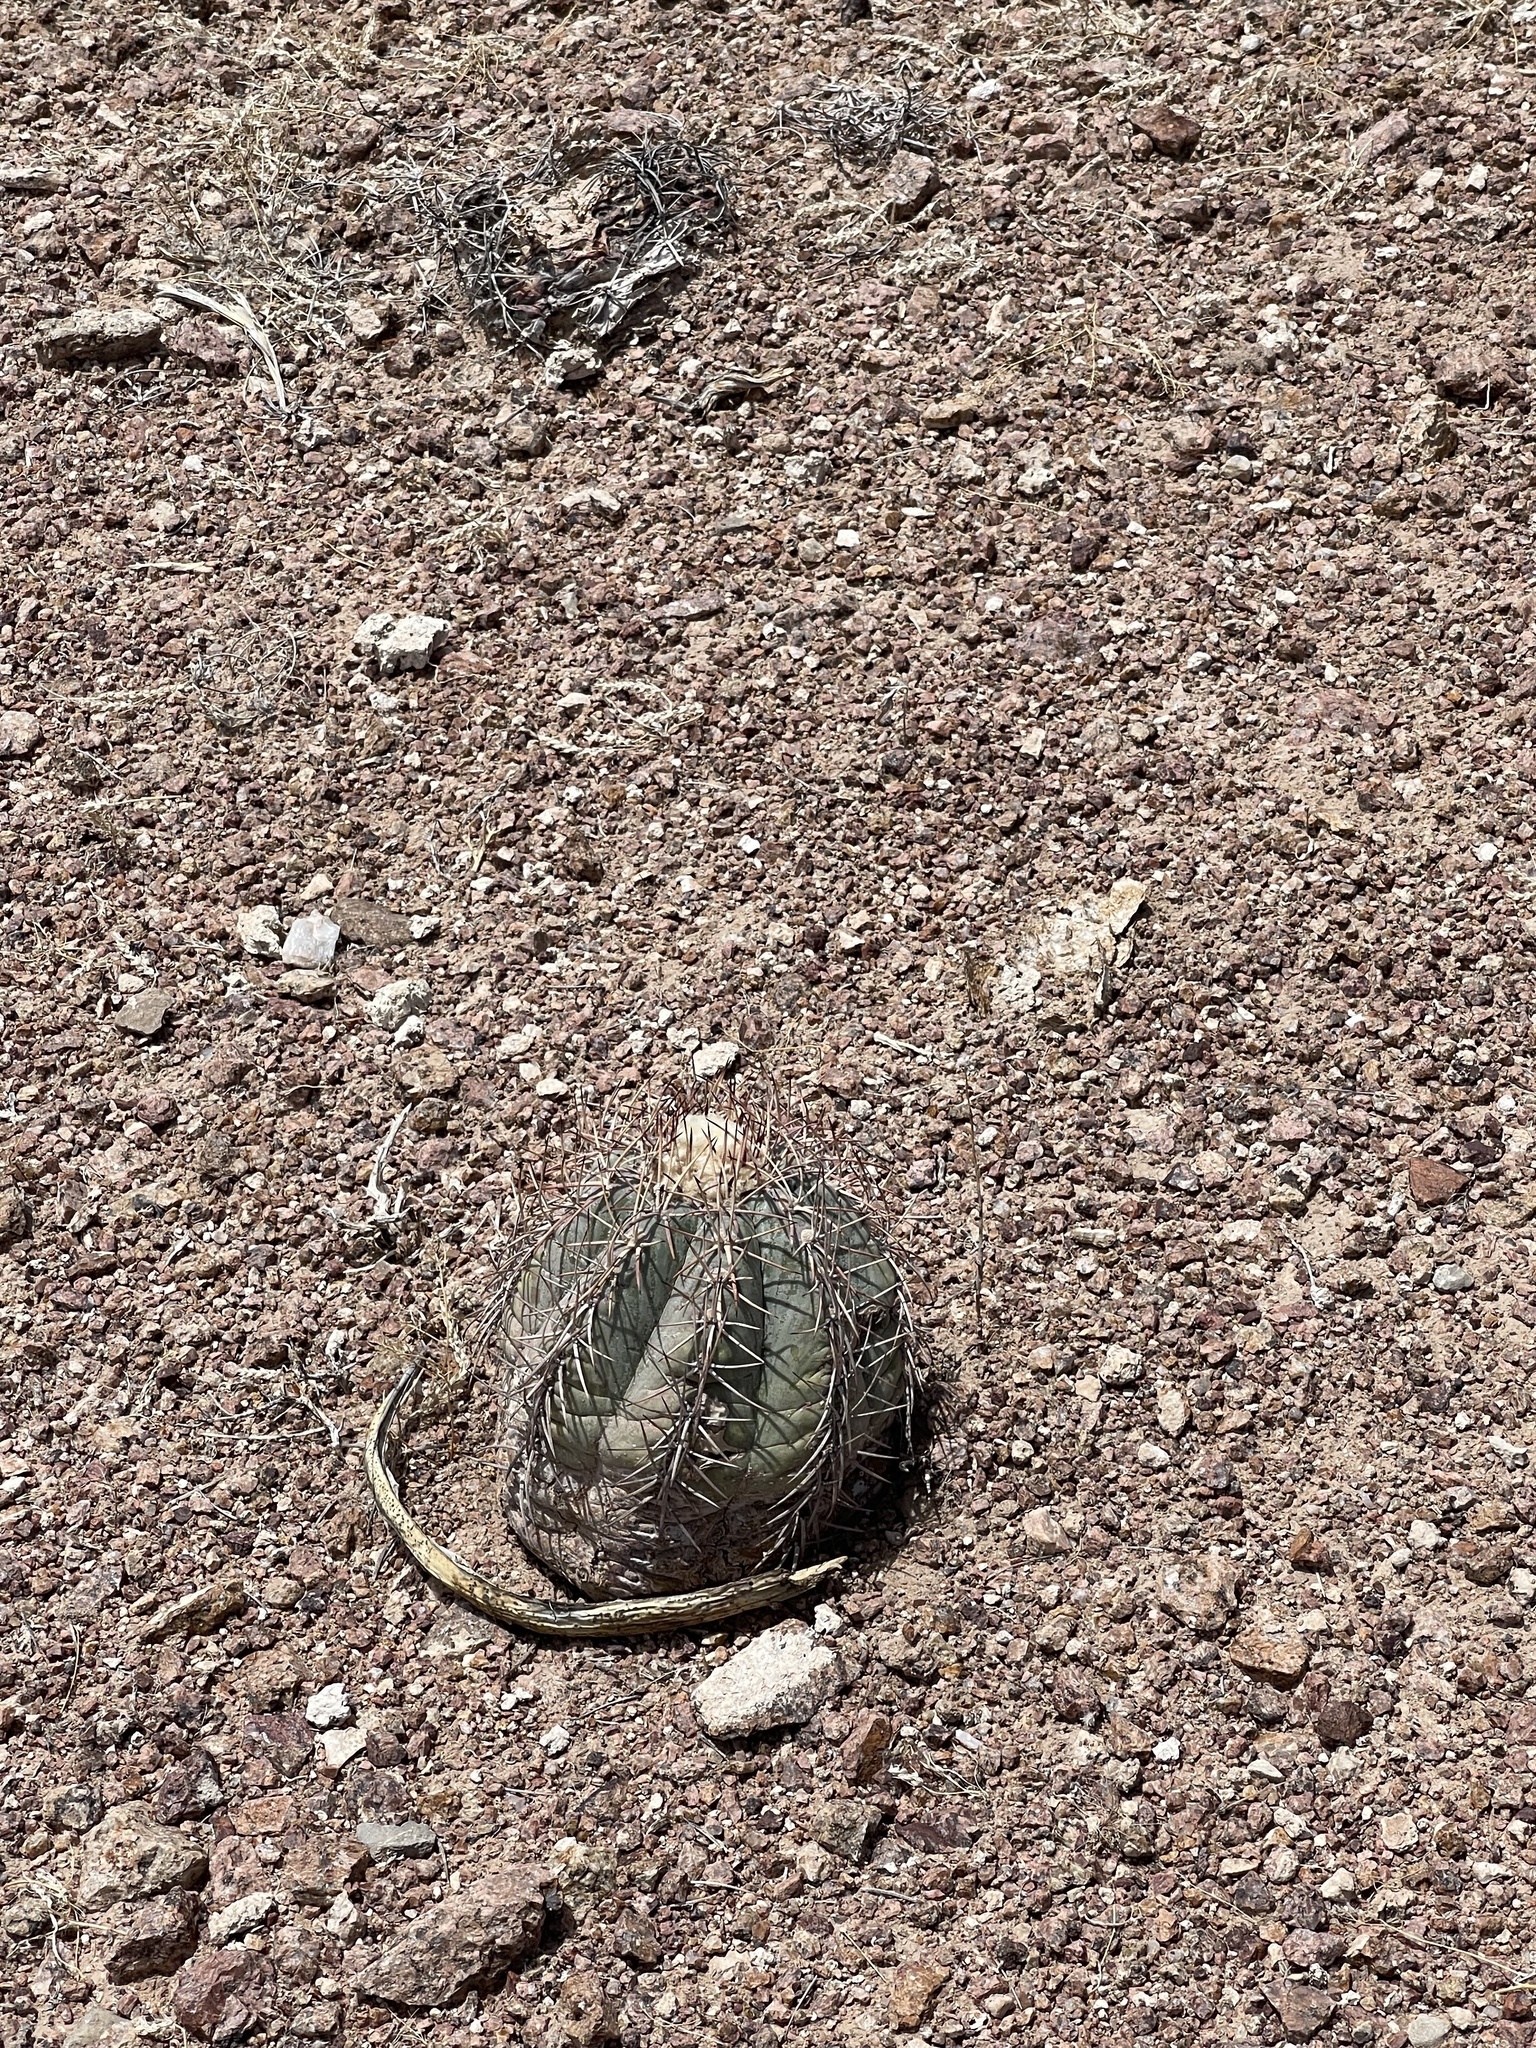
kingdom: Plantae
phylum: Tracheophyta
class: Magnoliopsida
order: Caryophyllales
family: Cactaceae
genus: Echinocactus
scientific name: Echinocactus horizonthalonius
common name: Devilshead
